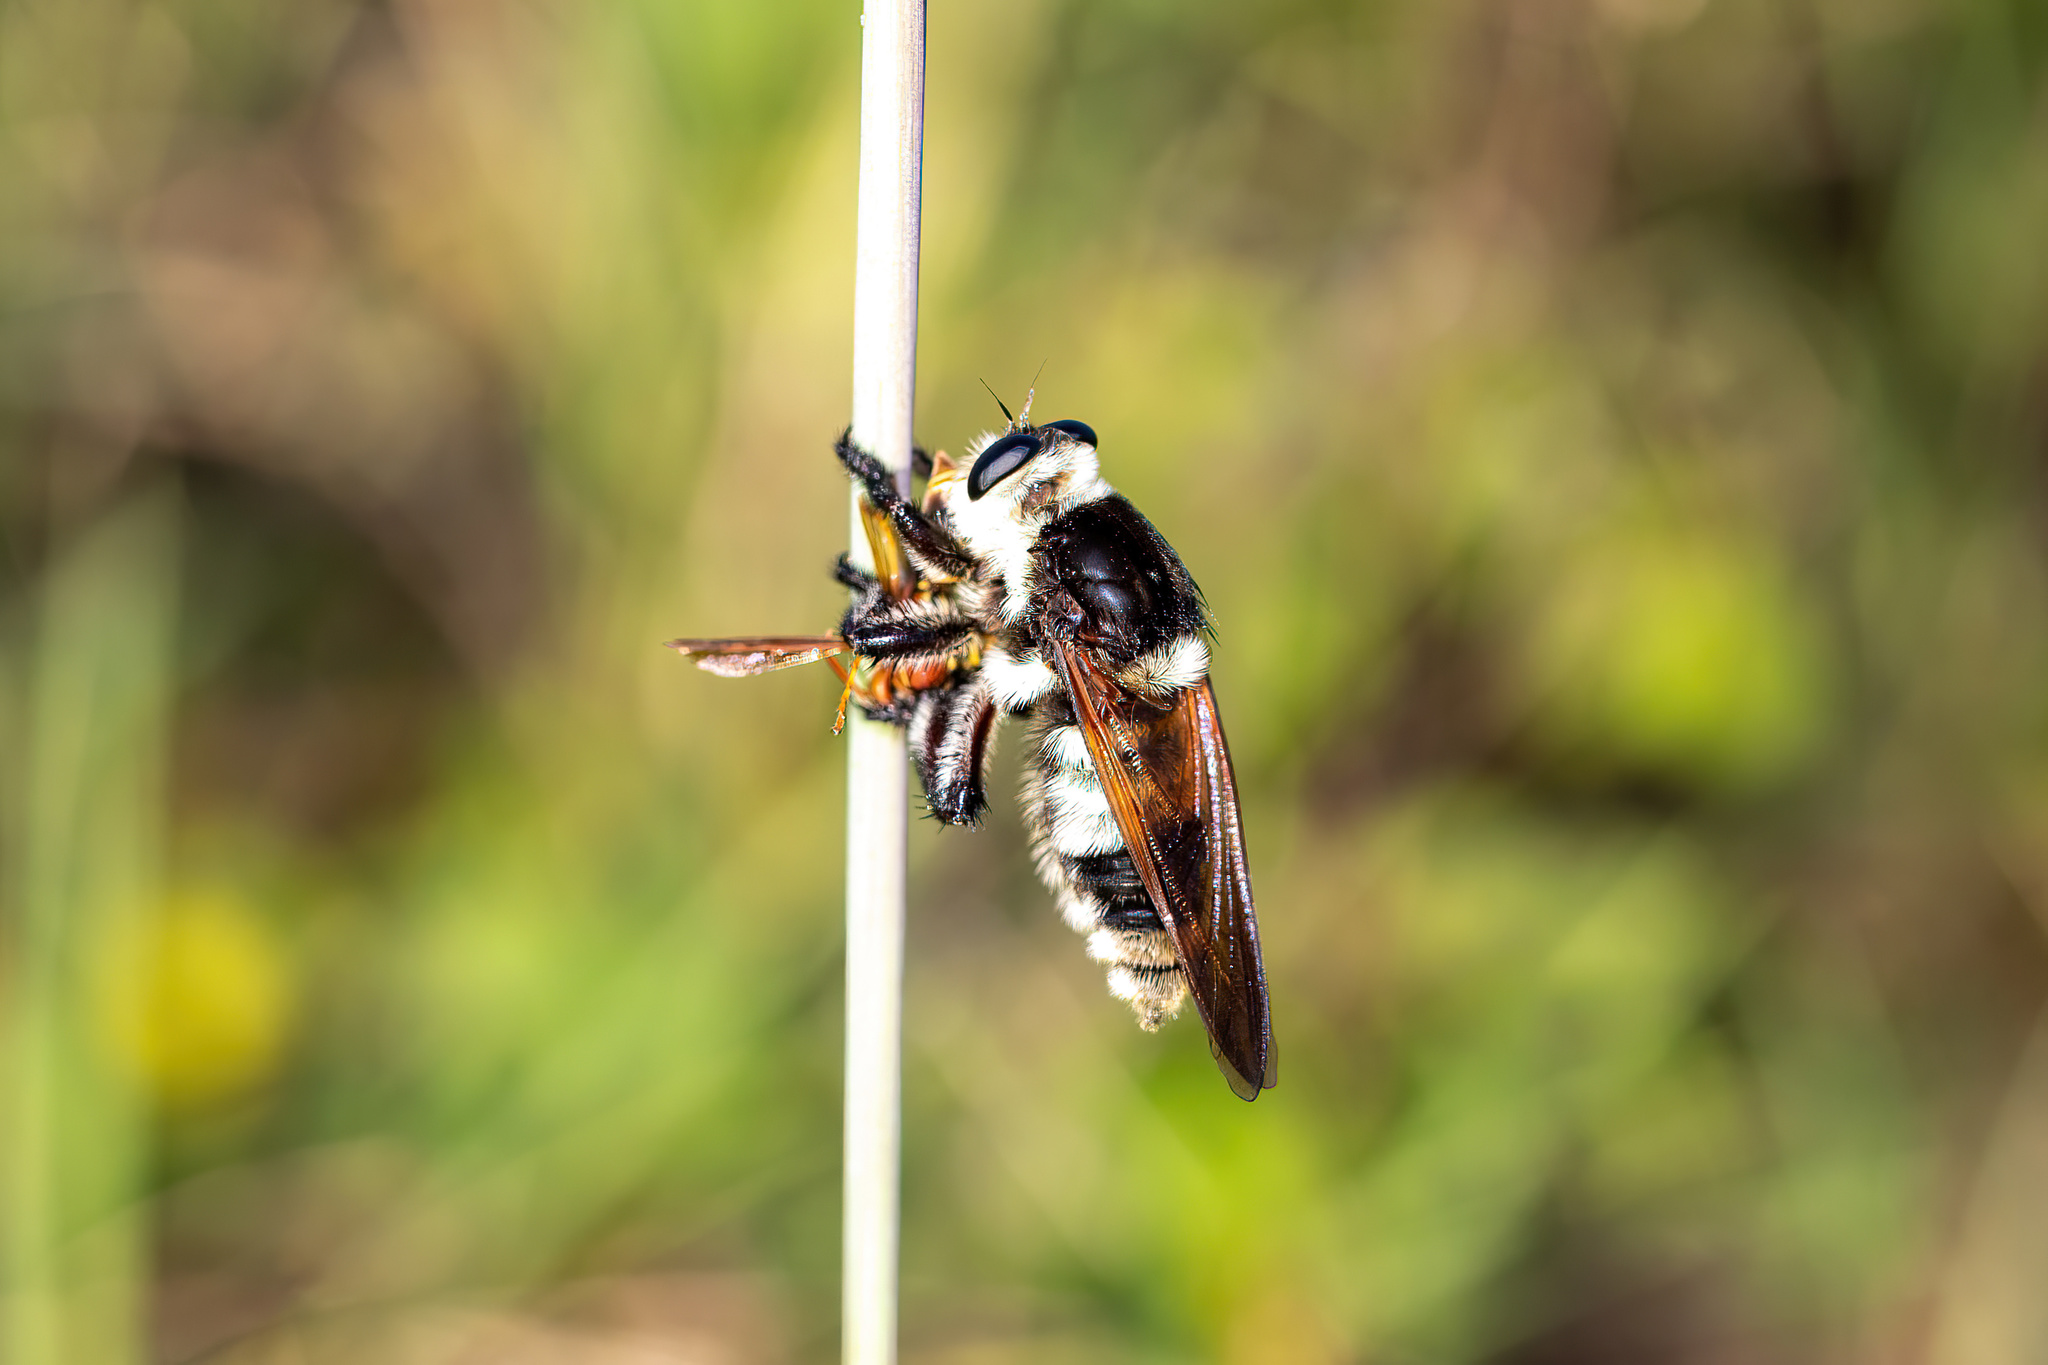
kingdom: Animalia
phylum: Arthropoda
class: Insecta
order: Diptera
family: Asilidae
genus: Mallophora
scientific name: Mallophora bomboides
